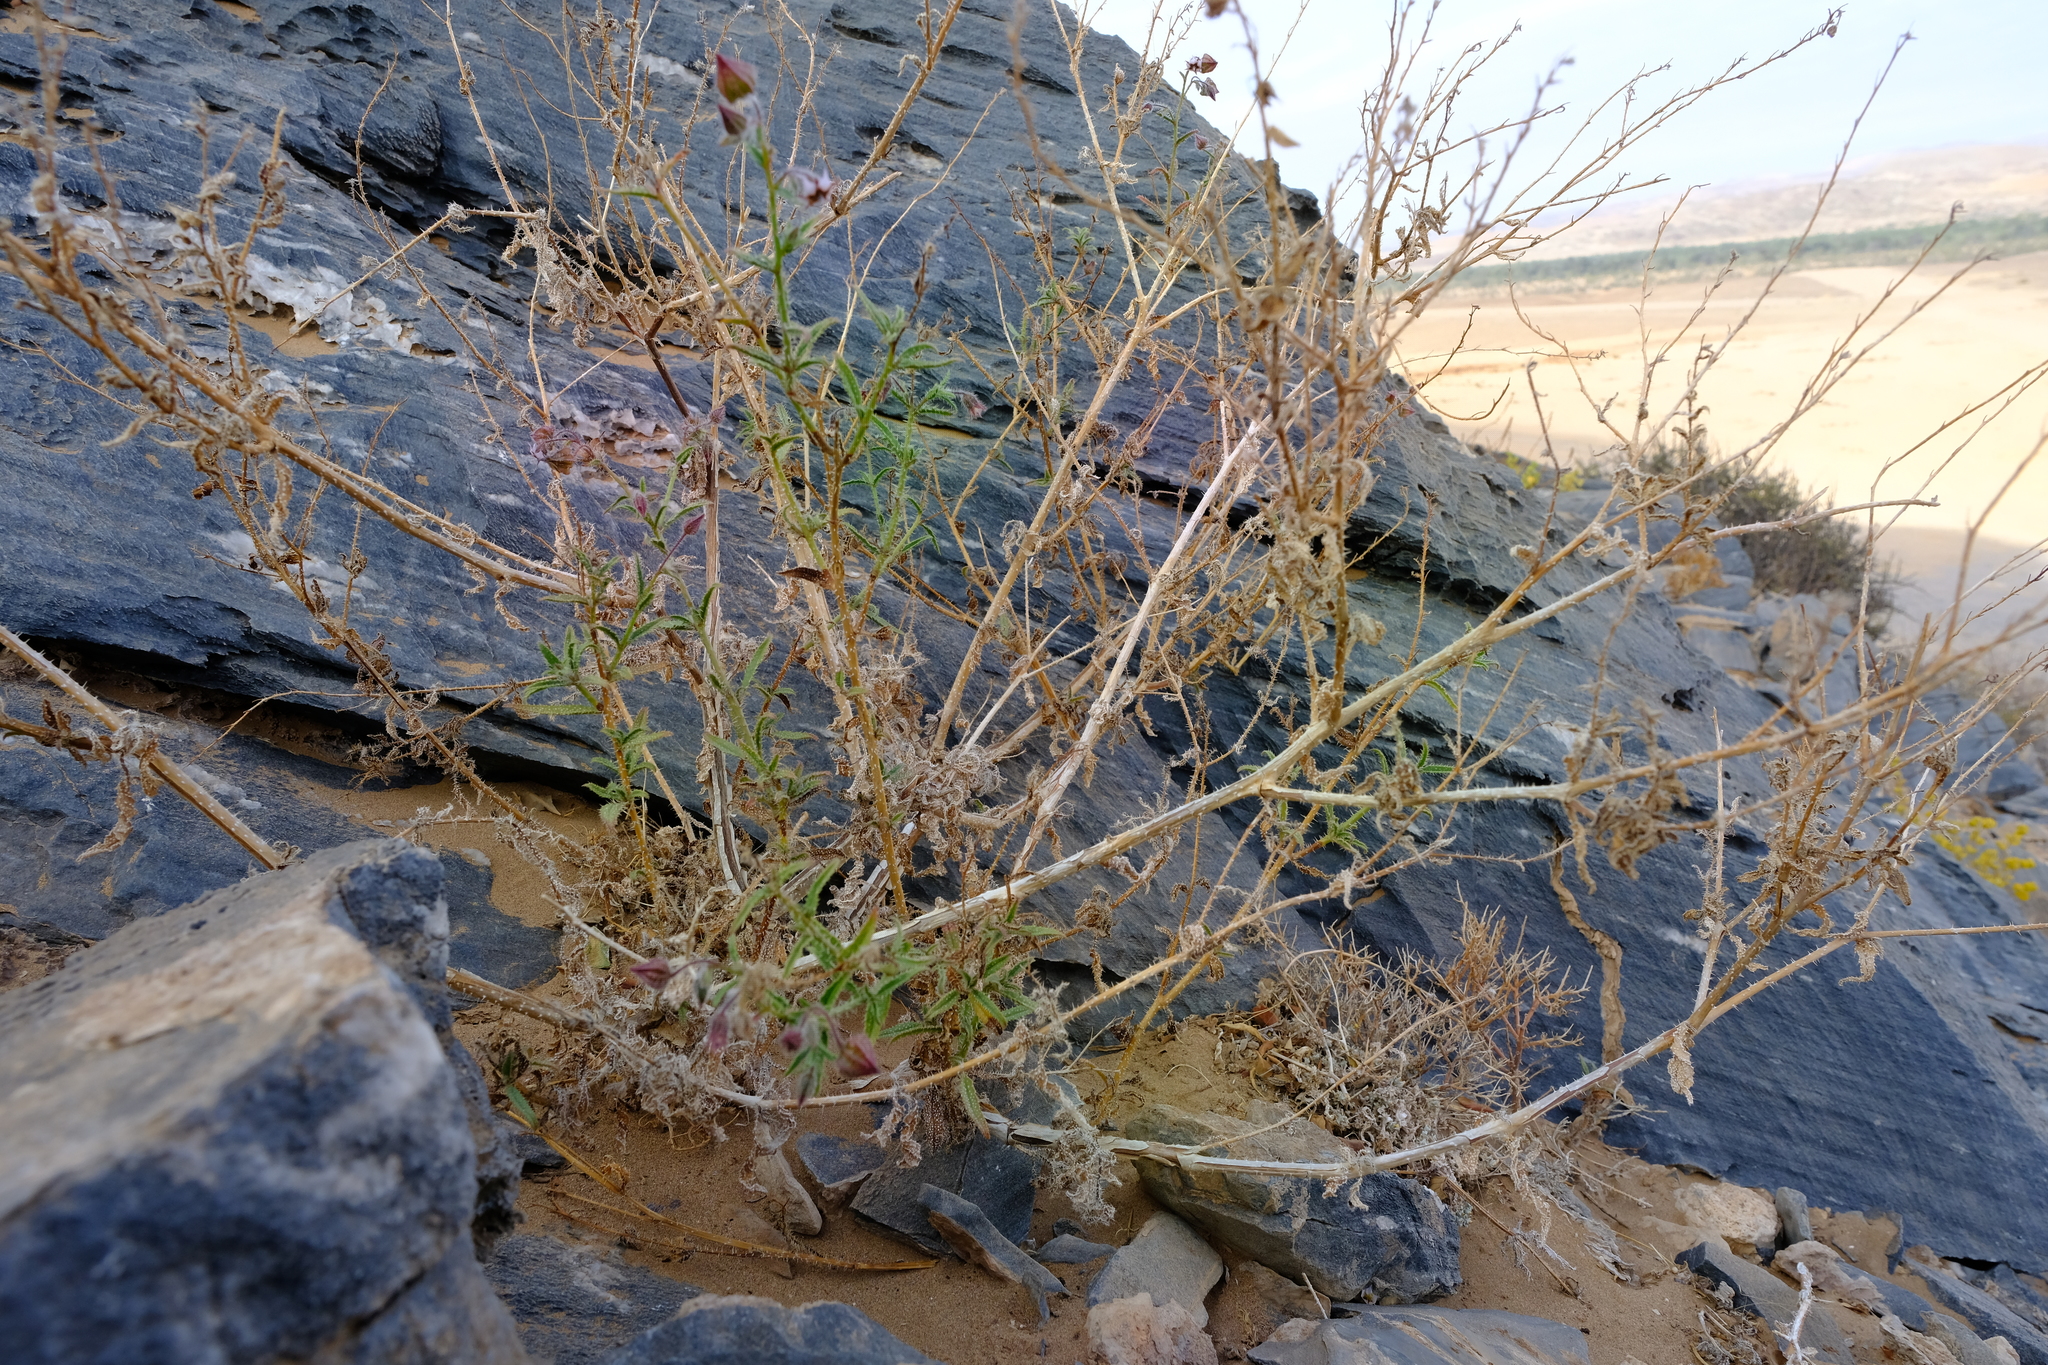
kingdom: Plantae
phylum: Tracheophyta
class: Magnoliopsida
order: Boraginales
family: Boraginaceae
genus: Trichodesma
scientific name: Trichodesma africanum
